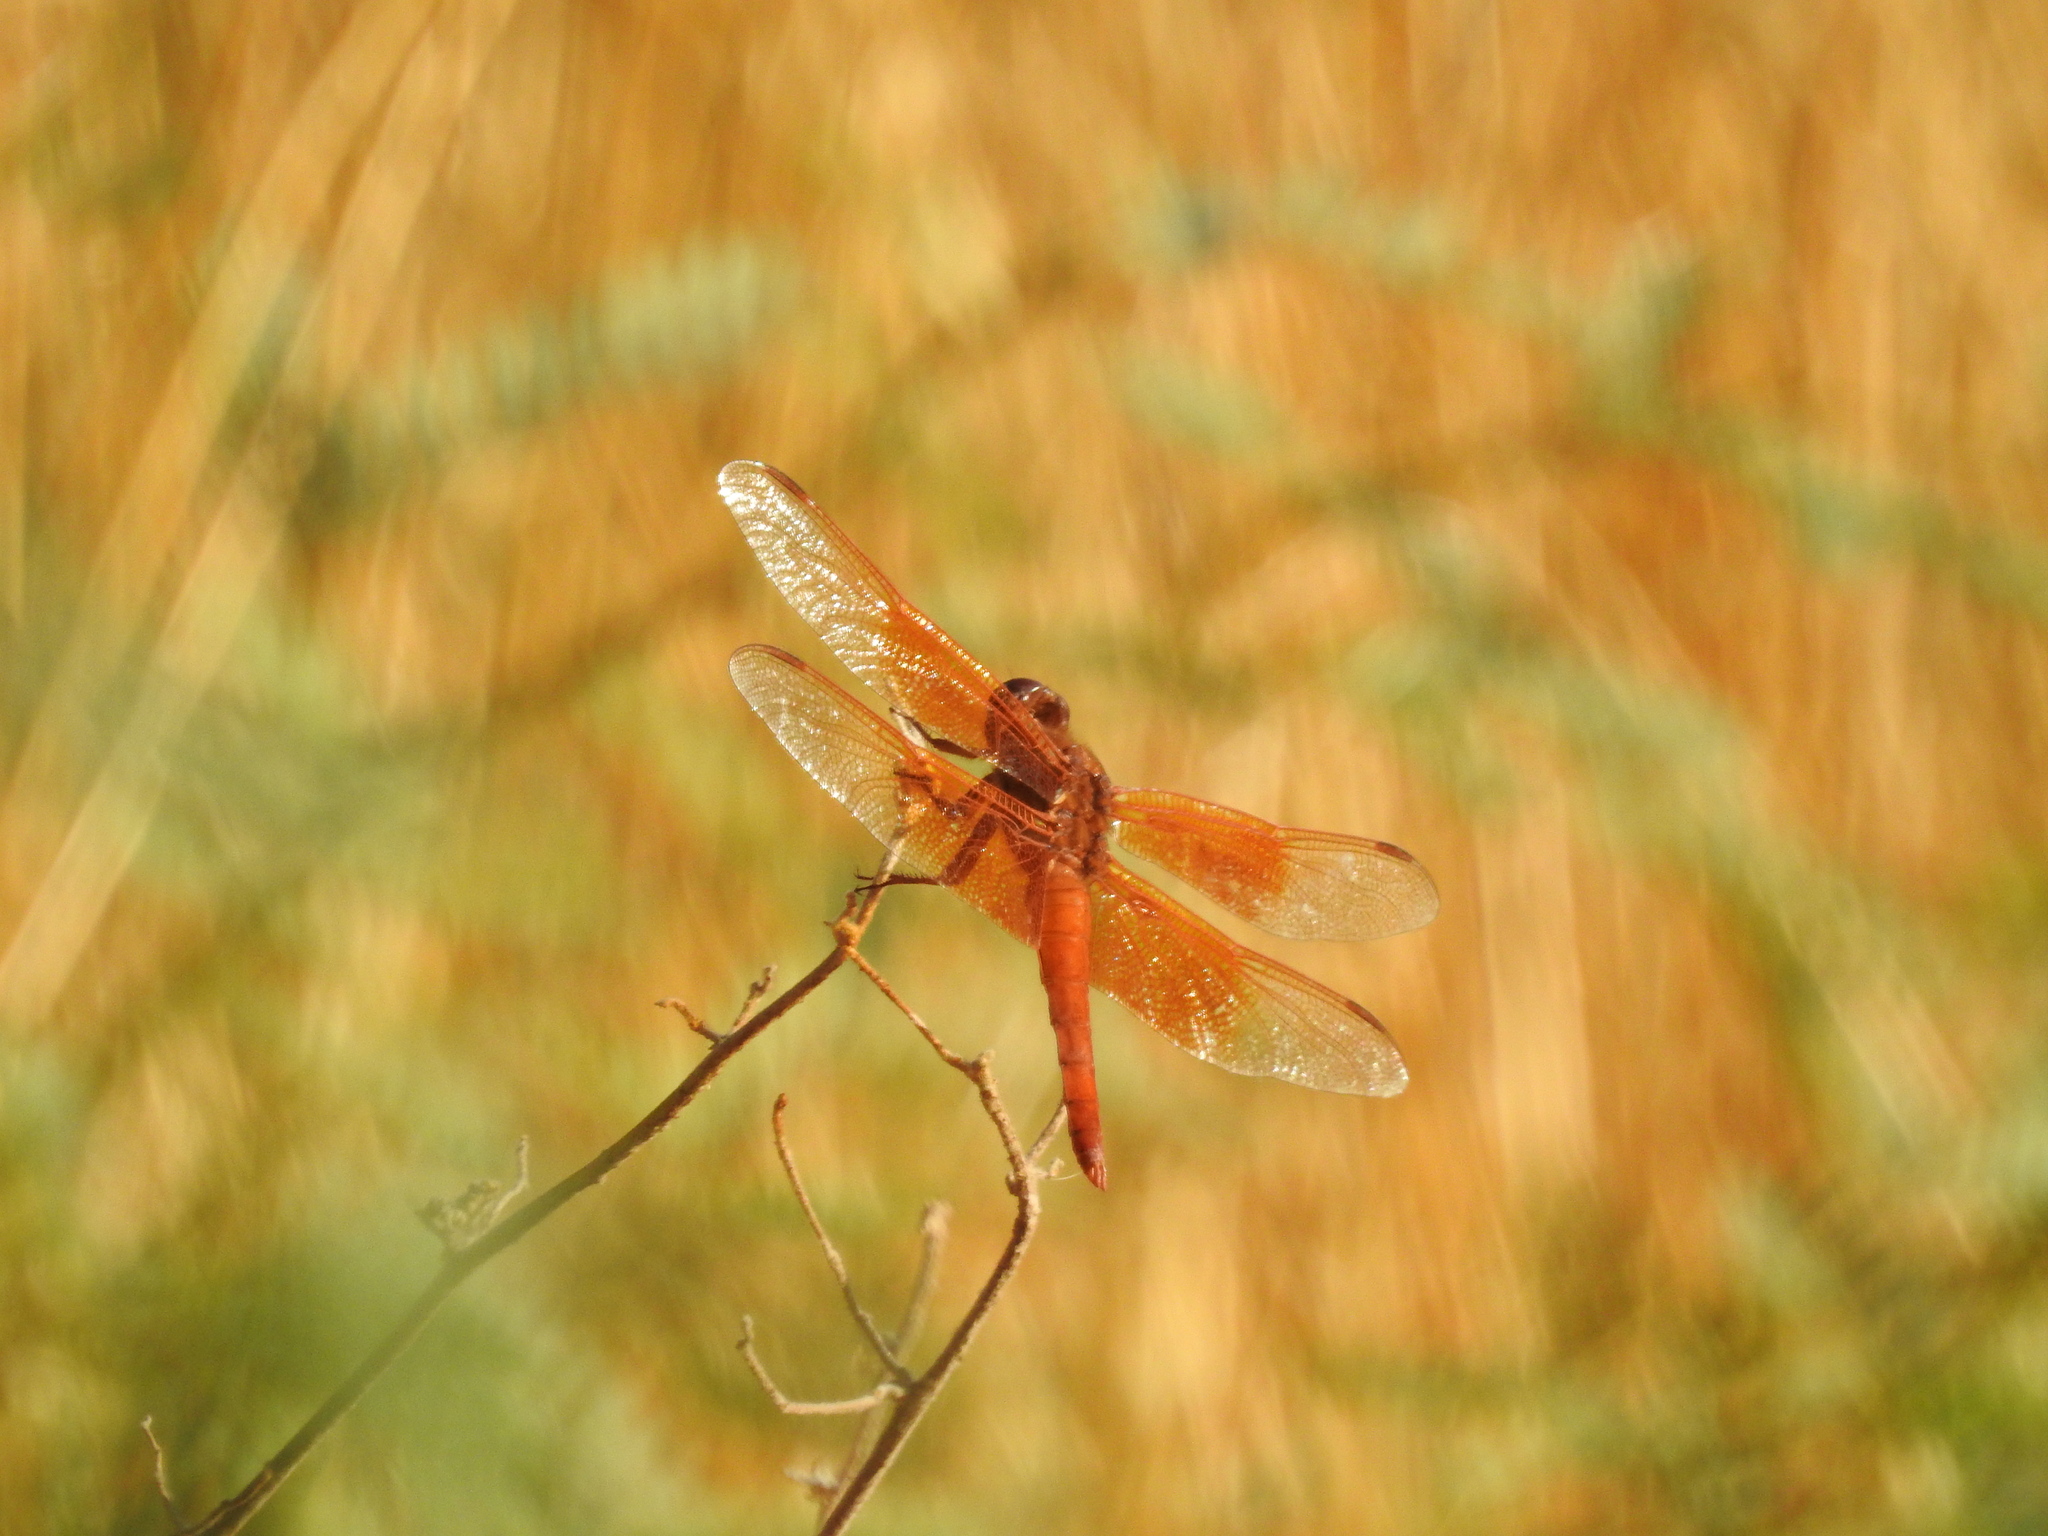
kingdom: Animalia
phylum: Arthropoda
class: Insecta
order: Odonata
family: Libellulidae
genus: Libellula
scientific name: Libellula saturata
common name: Flame skimmer
